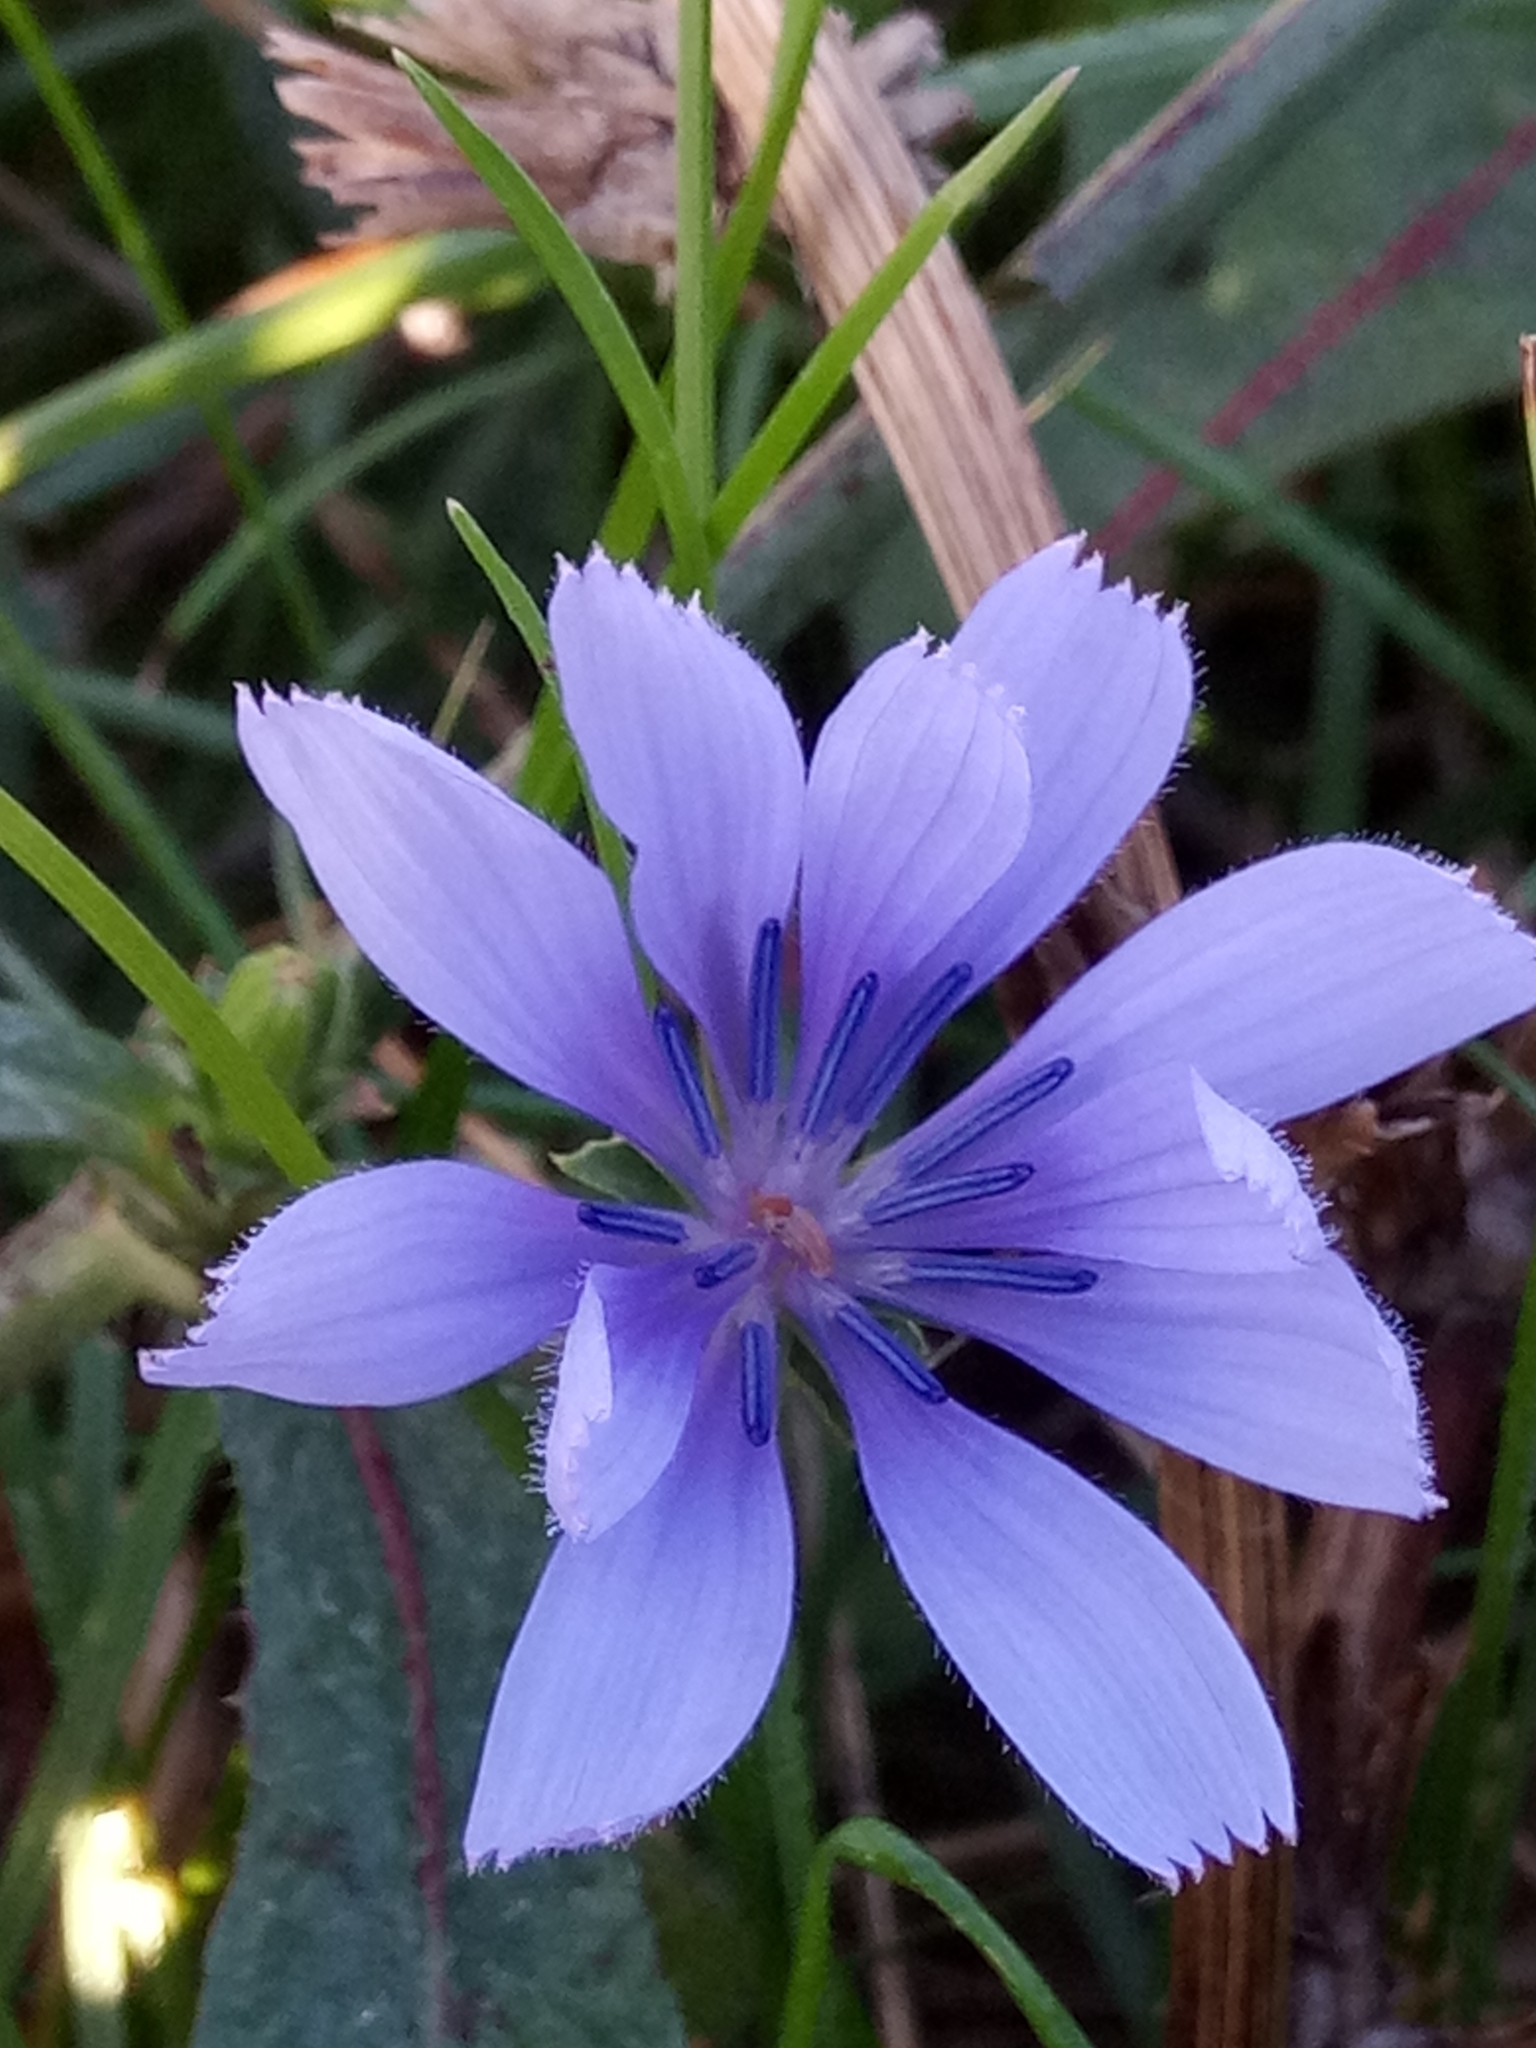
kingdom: Plantae
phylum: Tracheophyta
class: Magnoliopsida
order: Asterales
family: Asteraceae
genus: Cichorium
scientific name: Cichorium intybus
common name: Chicory
